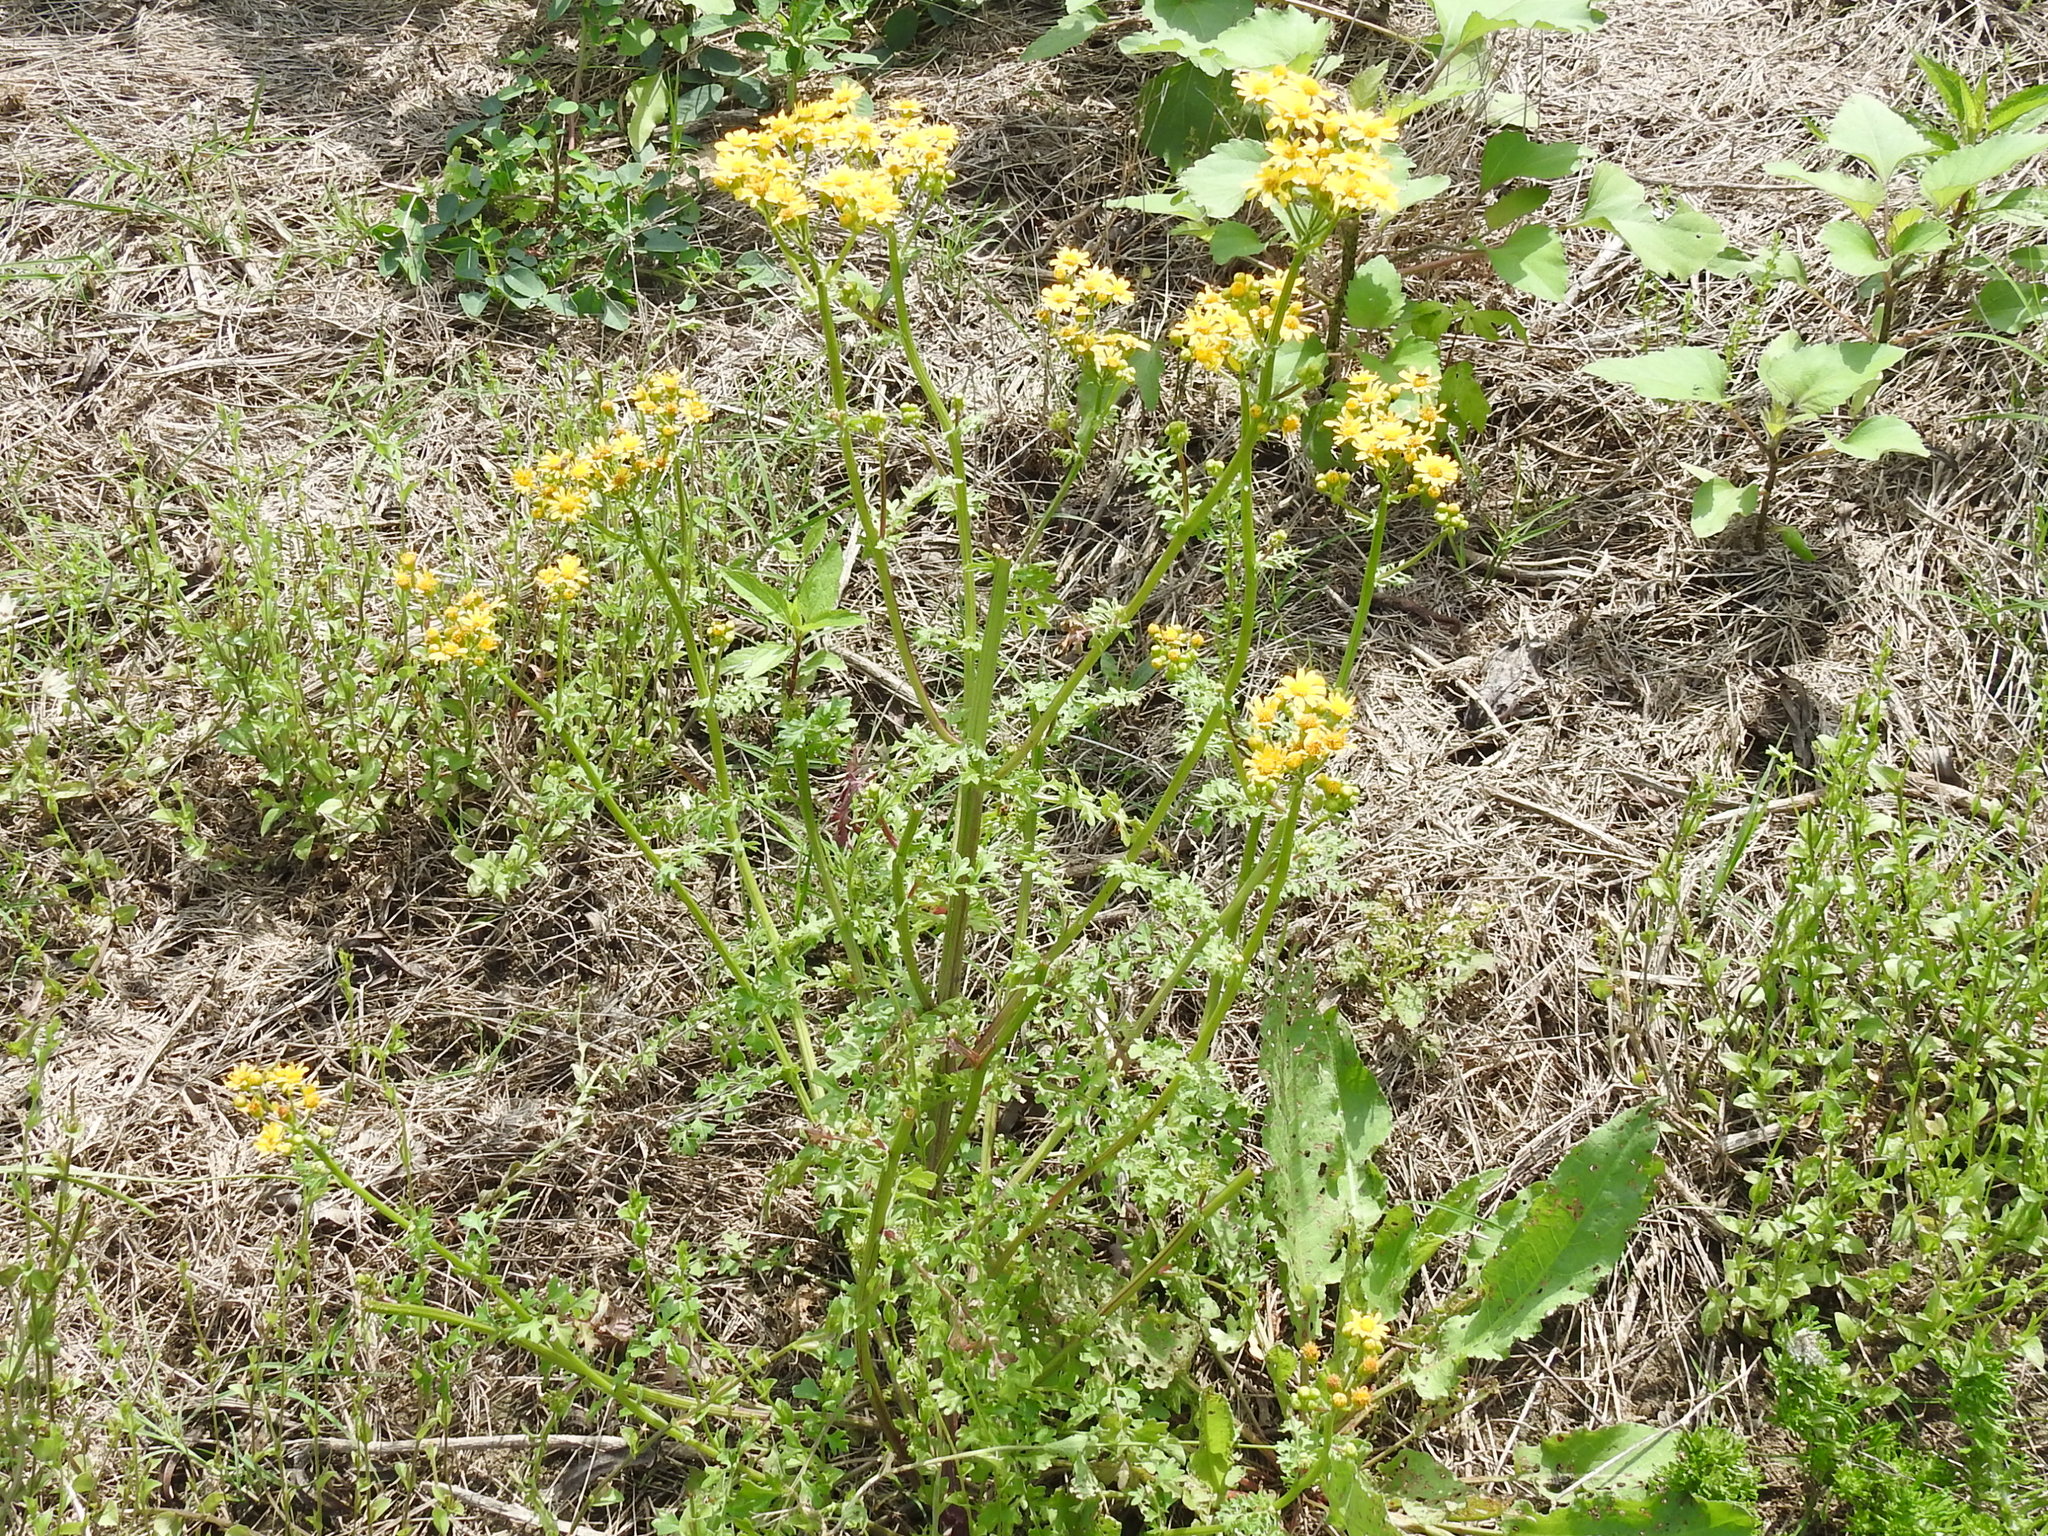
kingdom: Plantae
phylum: Tracheophyta
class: Magnoliopsida
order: Asterales
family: Asteraceae
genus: Packera
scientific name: Packera tampicana
